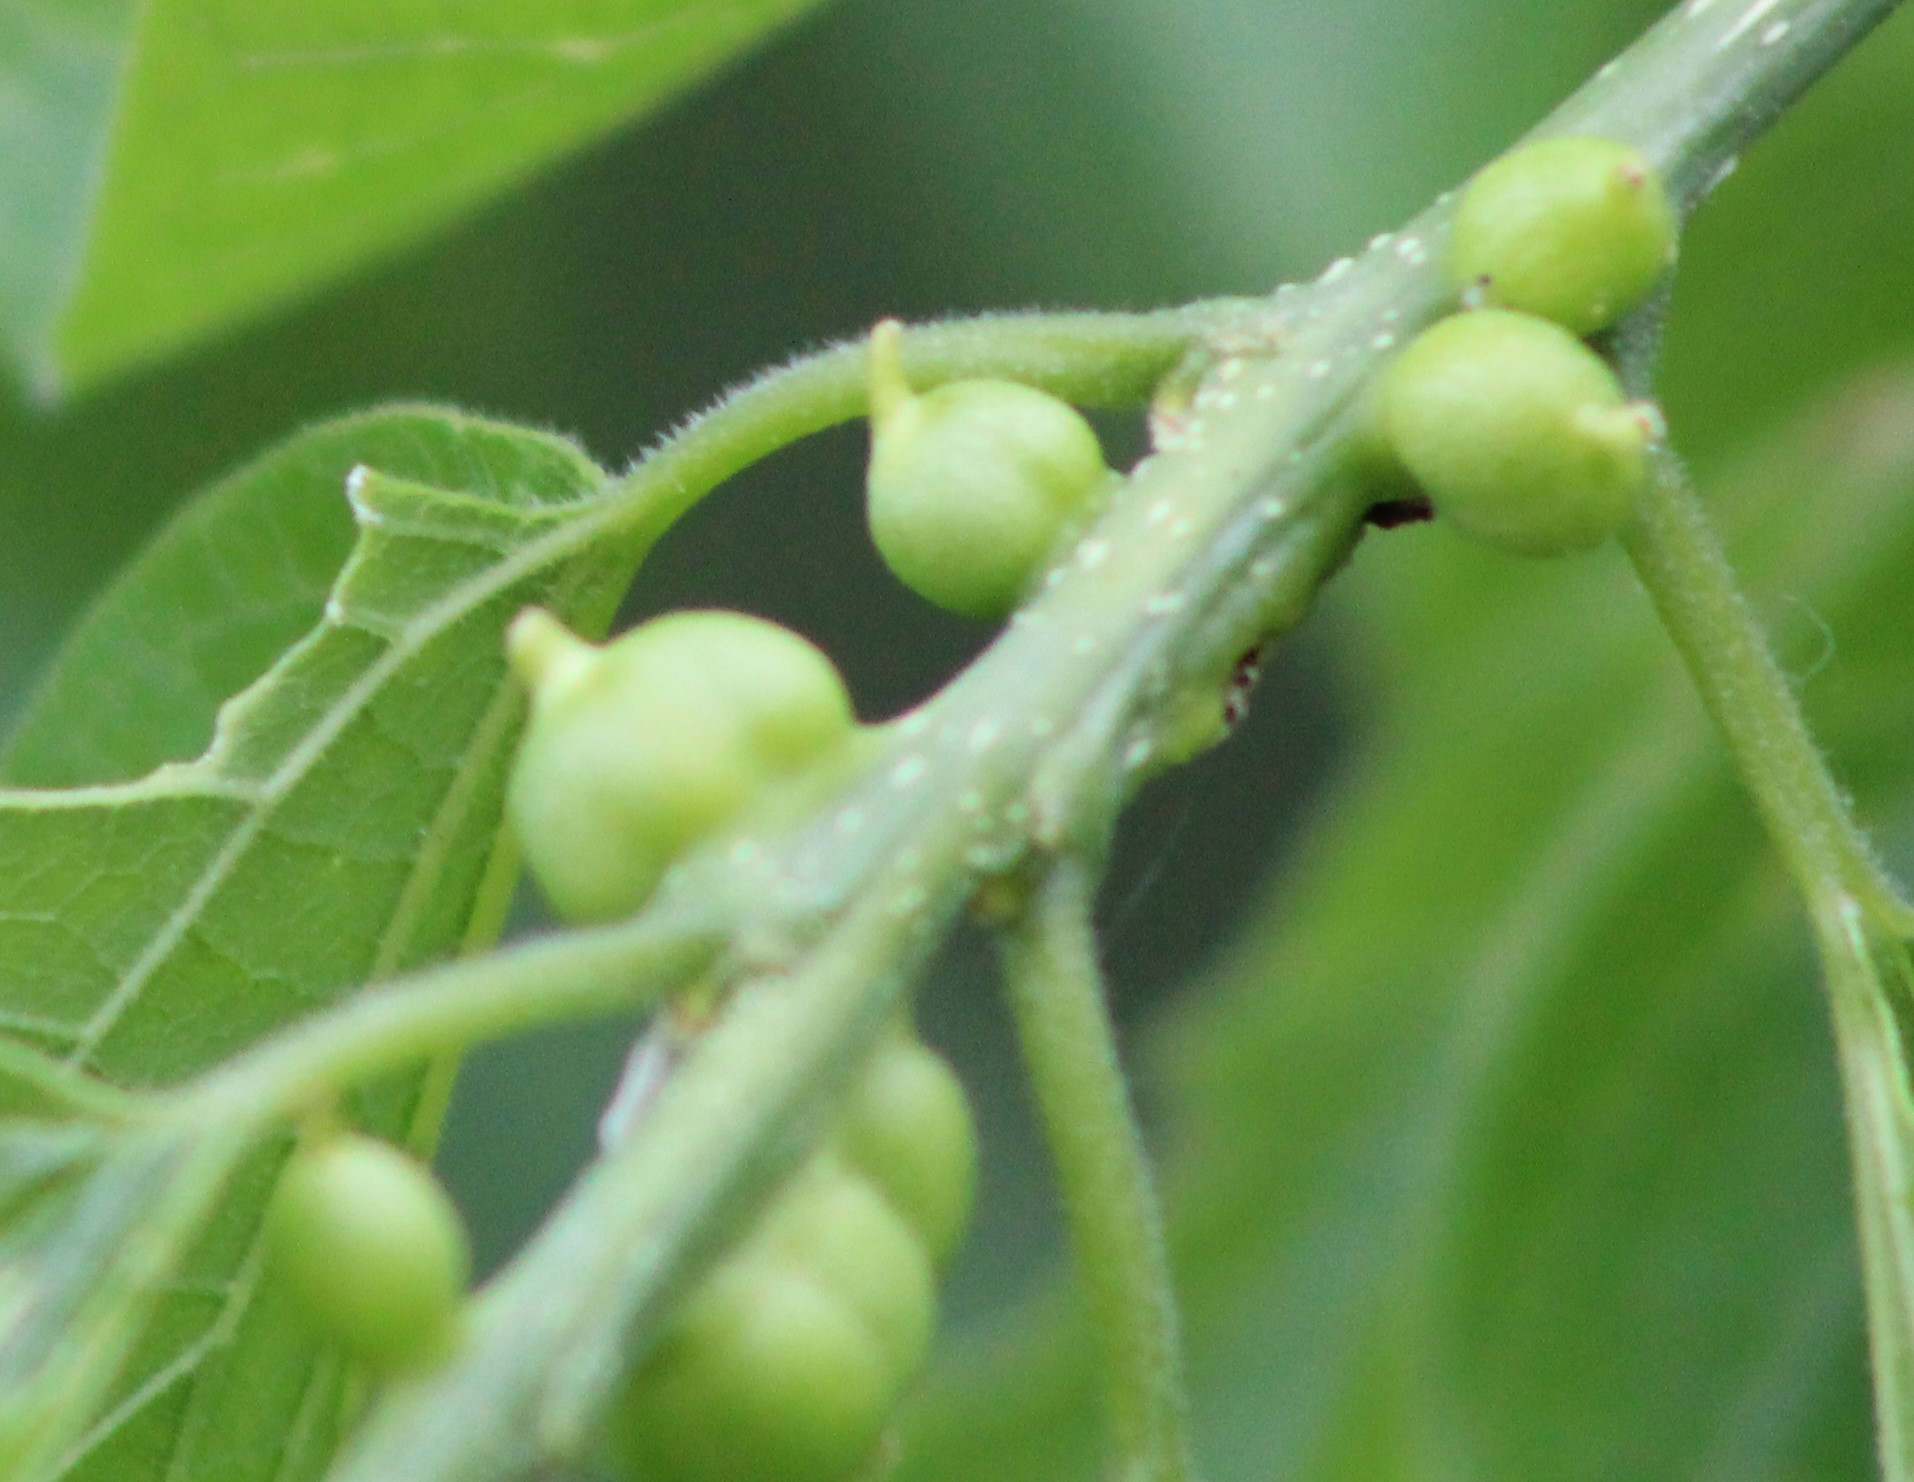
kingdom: Animalia
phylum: Arthropoda
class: Insecta
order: Diptera
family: Cecidomyiidae
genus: Celticecis
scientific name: Celticecis connata
